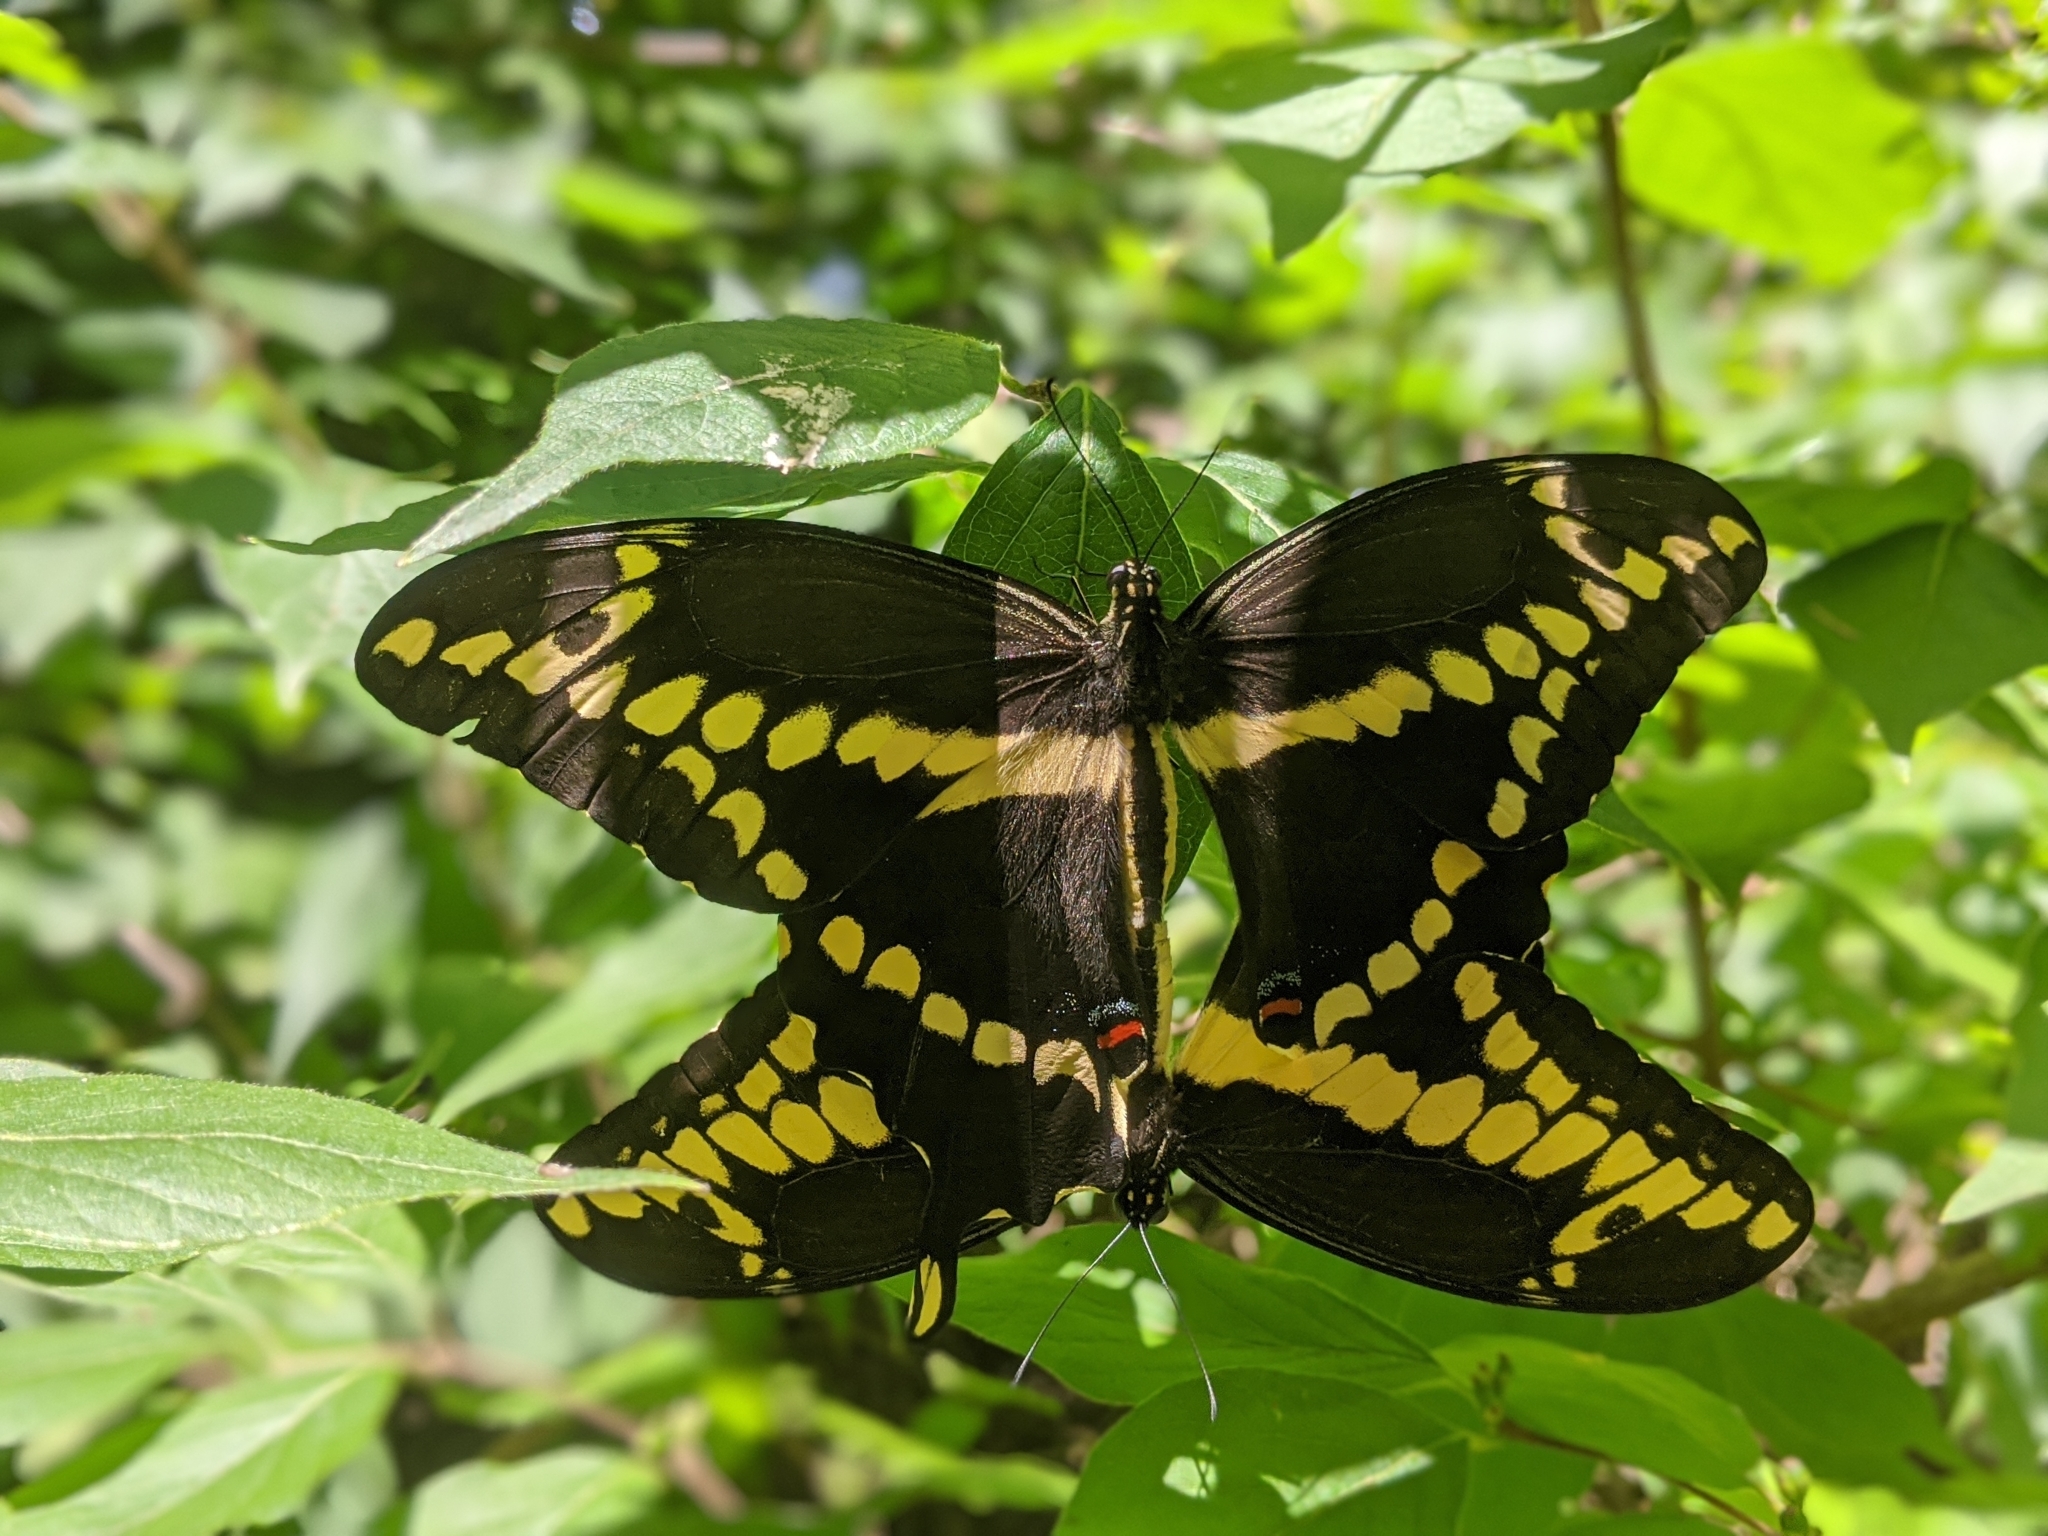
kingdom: Animalia
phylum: Arthropoda
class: Insecta
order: Lepidoptera
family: Papilionidae
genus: Papilio
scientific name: Papilio cresphontes
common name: Giant swallowtail
